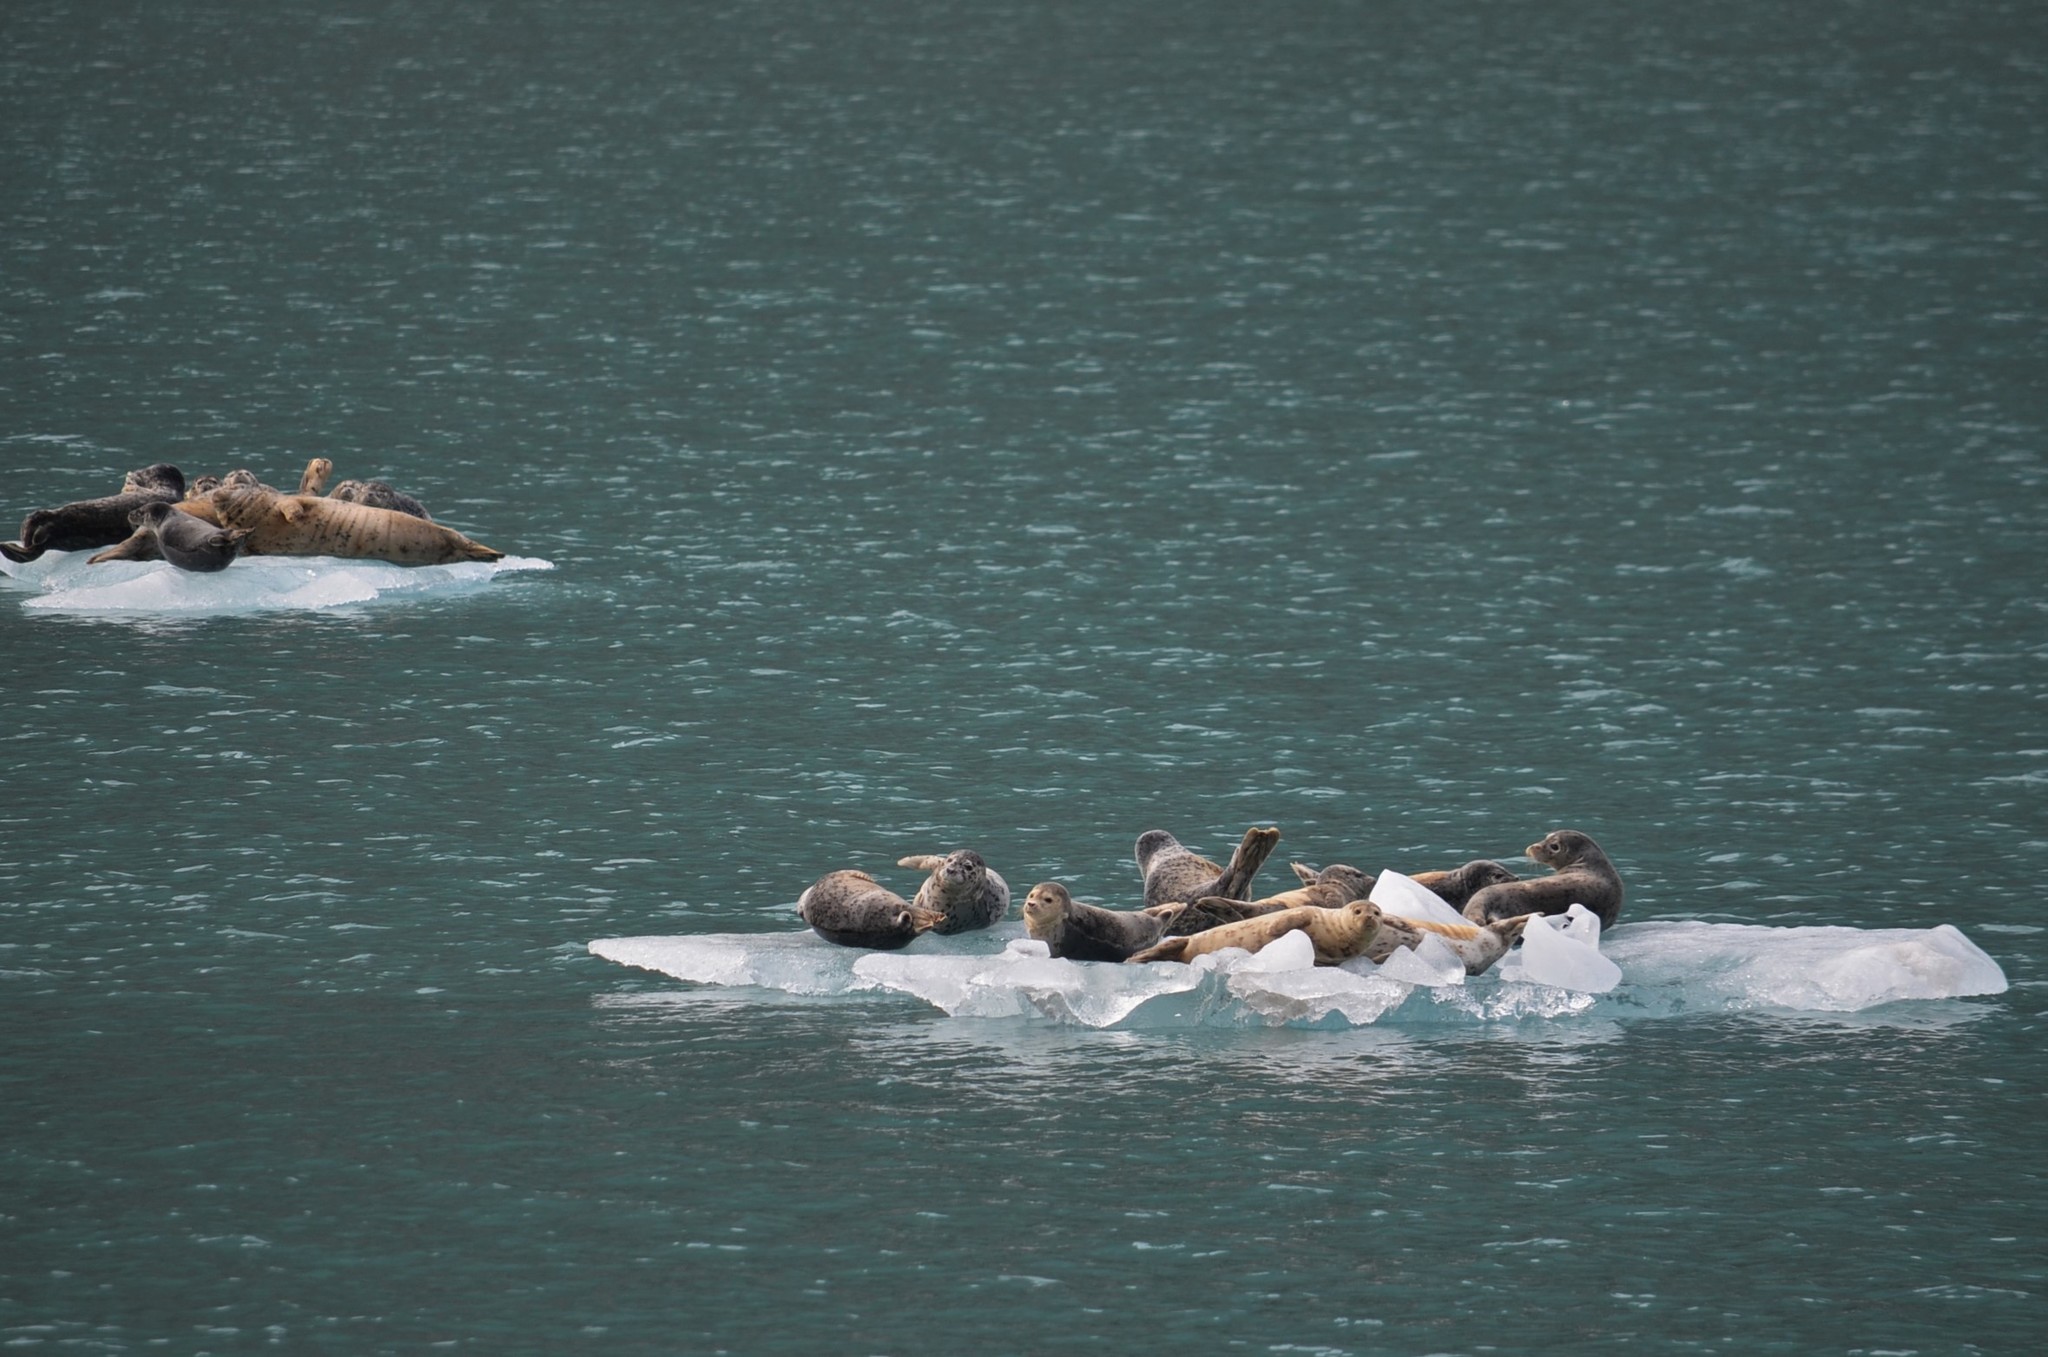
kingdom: Animalia
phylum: Chordata
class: Mammalia
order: Carnivora
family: Phocidae
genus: Phoca
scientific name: Phoca vitulina
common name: Harbor seal
